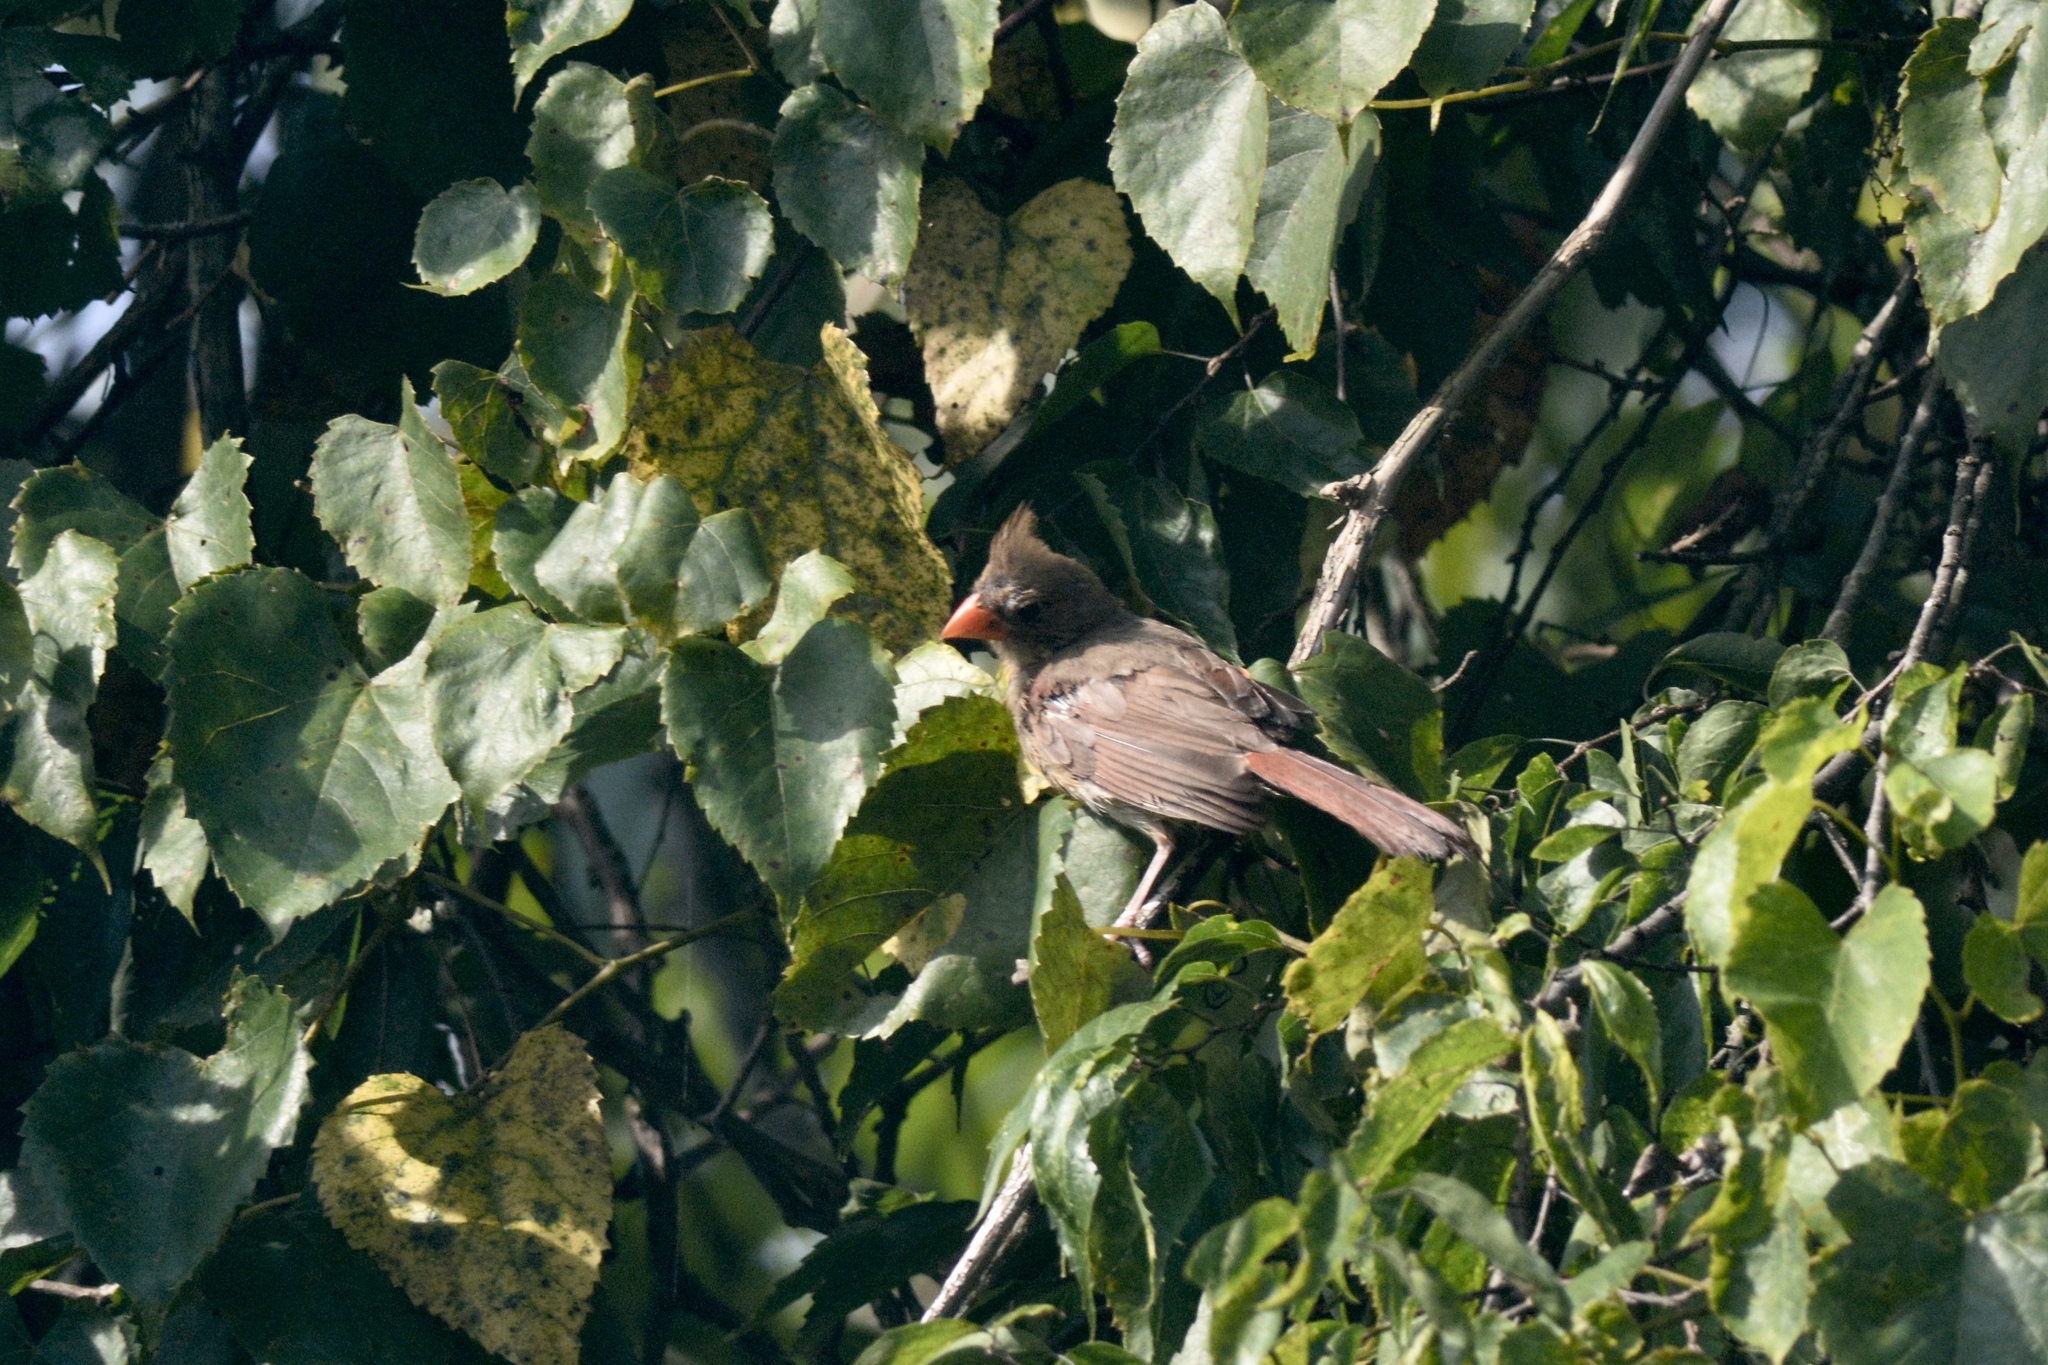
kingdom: Animalia
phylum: Chordata
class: Aves
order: Passeriformes
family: Cardinalidae
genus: Cardinalis
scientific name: Cardinalis cardinalis
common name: Northern cardinal
